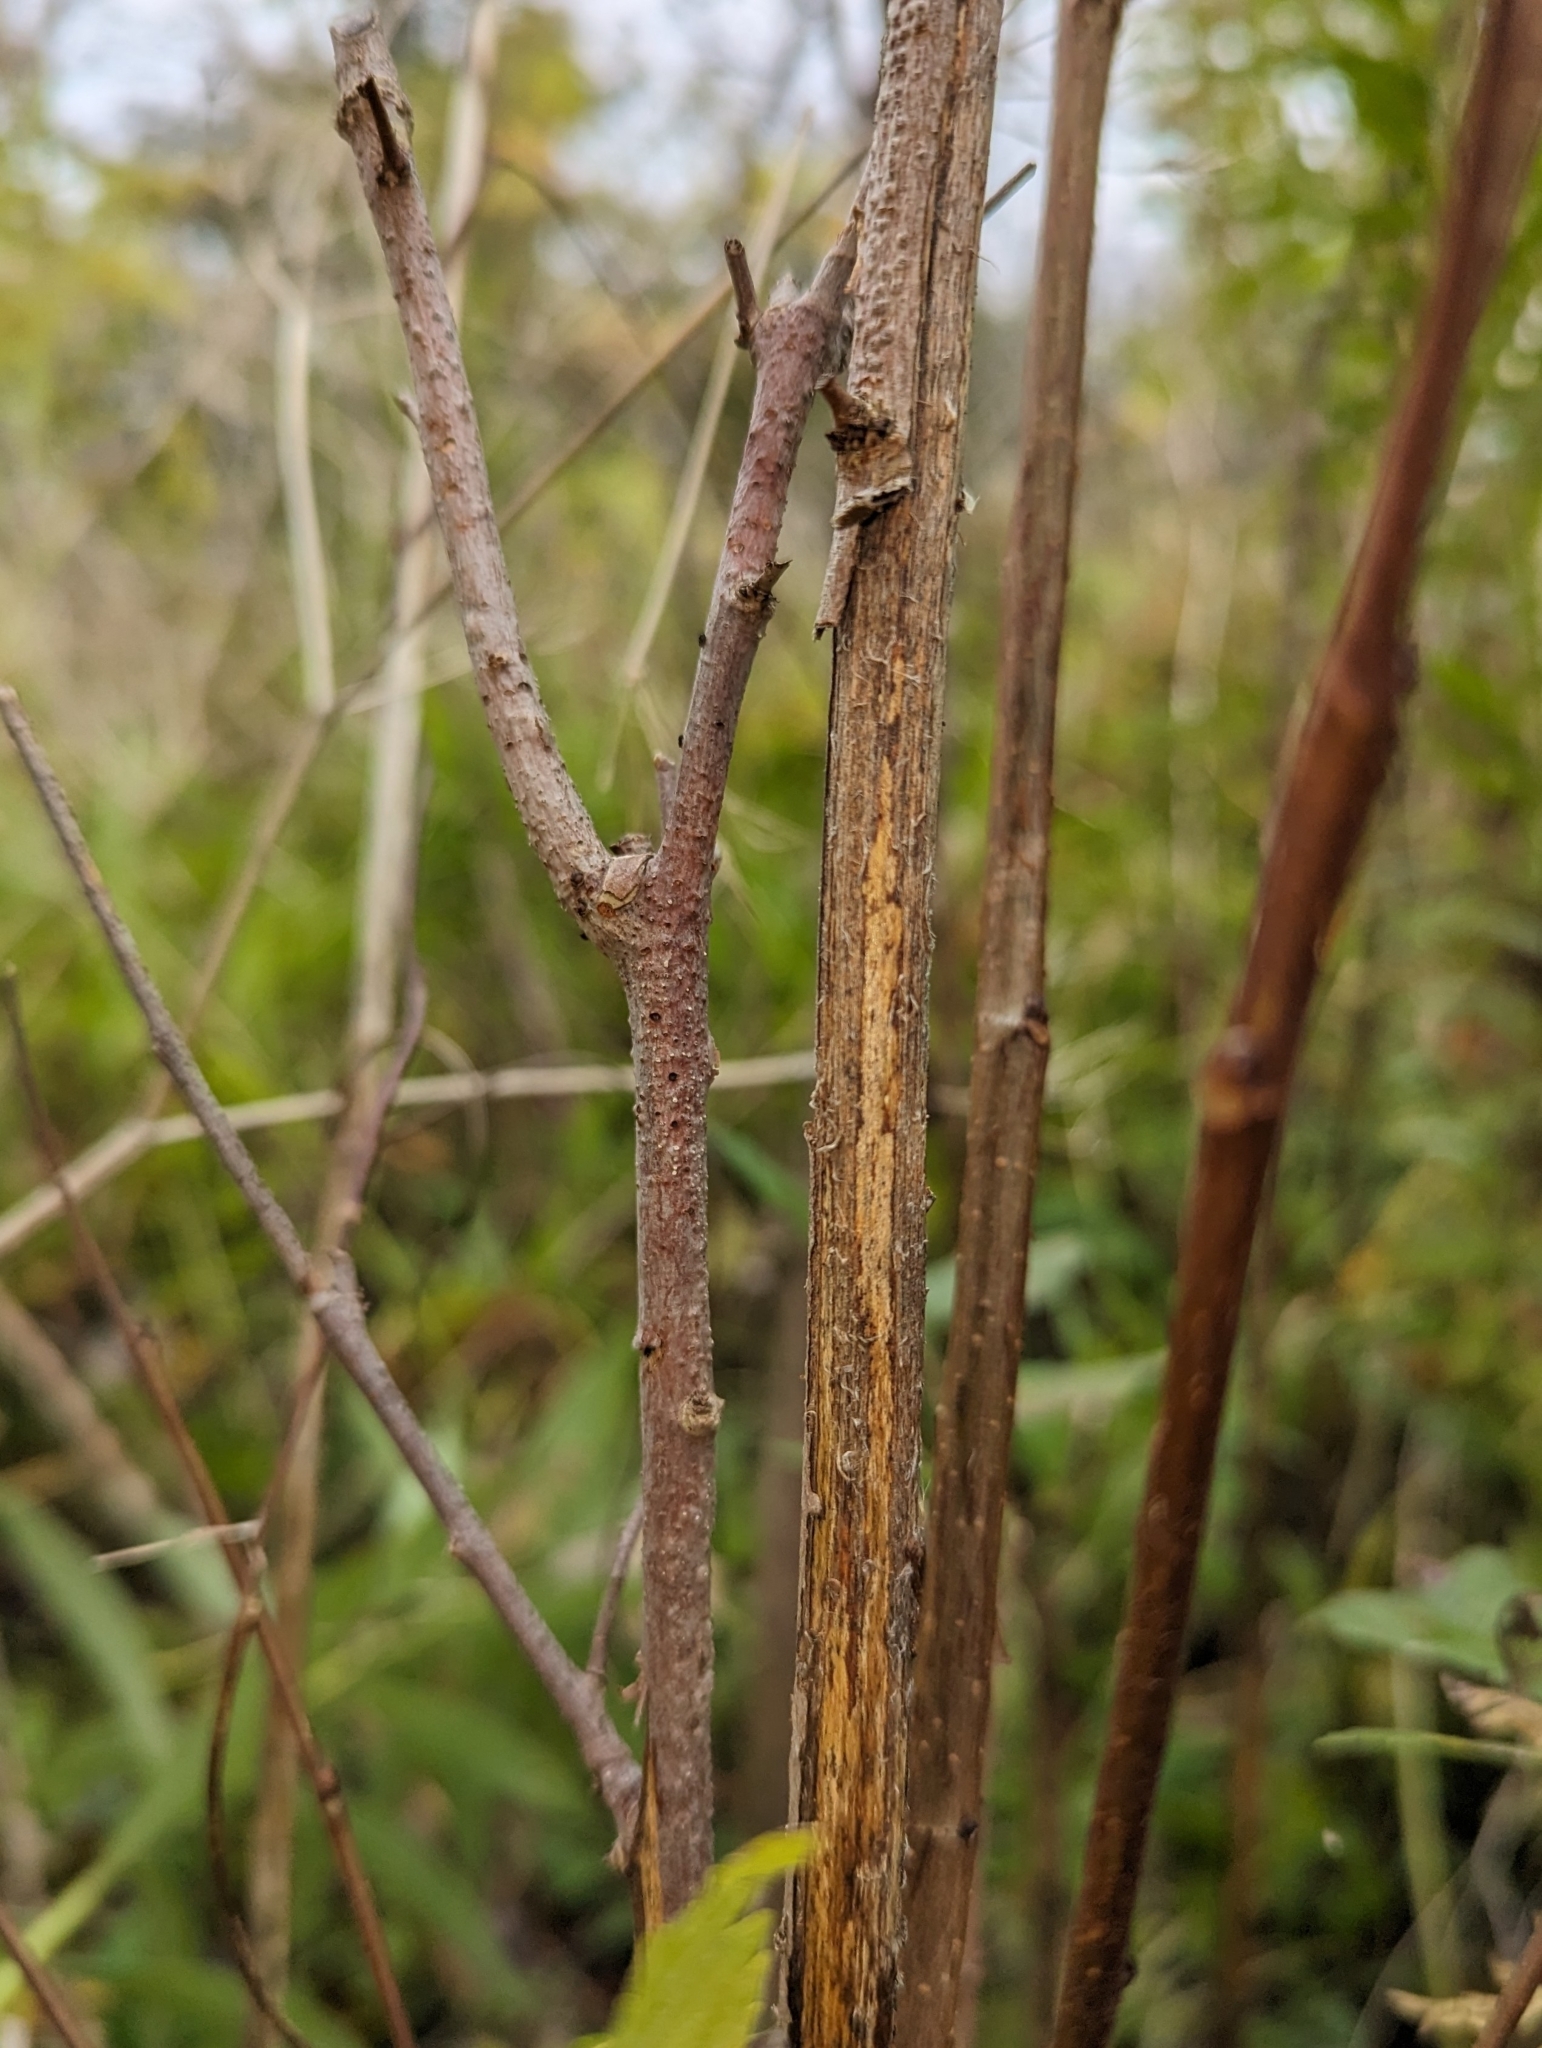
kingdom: Plantae
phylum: Tracheophyta
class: Magnoliopsida
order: Rosales
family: Ulmaceae
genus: Ulmus
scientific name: Ulmus americana
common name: American elm
